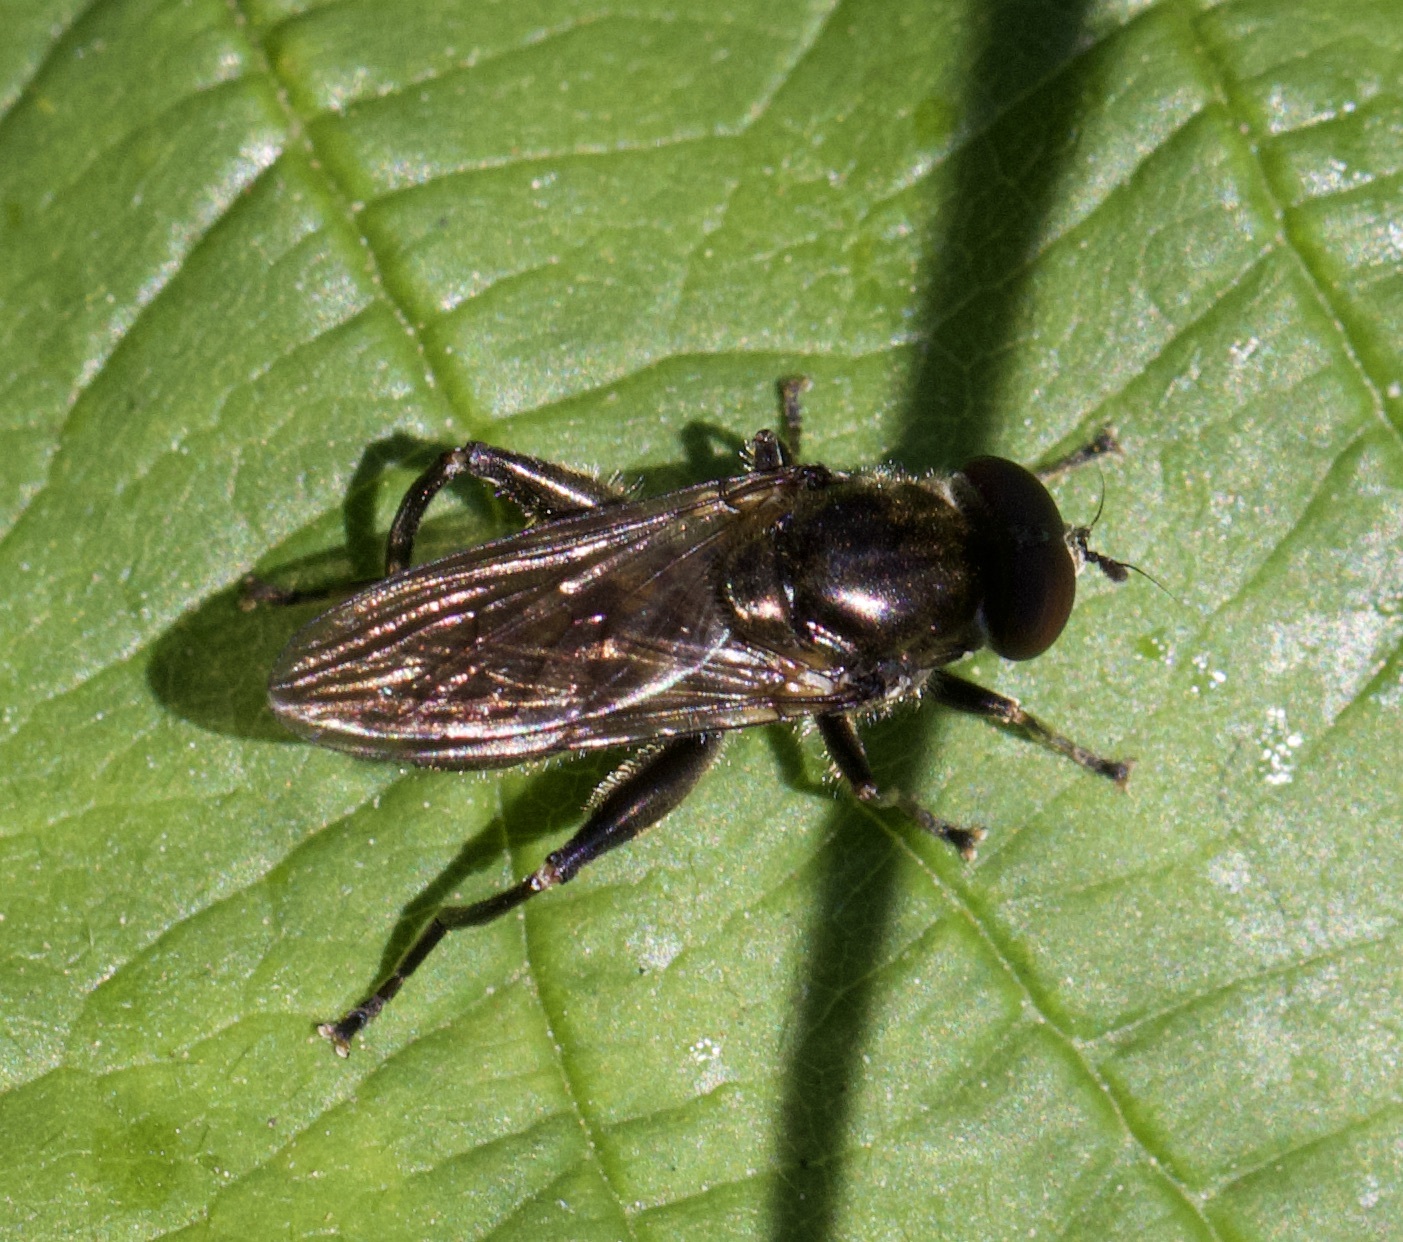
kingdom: Animalia
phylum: Arthropoda
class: Insecta
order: Diptera
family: Syrphidae
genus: Chalcosyrphus
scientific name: Chalcosyrphus nemorum
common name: Dusky-banded forest fly
